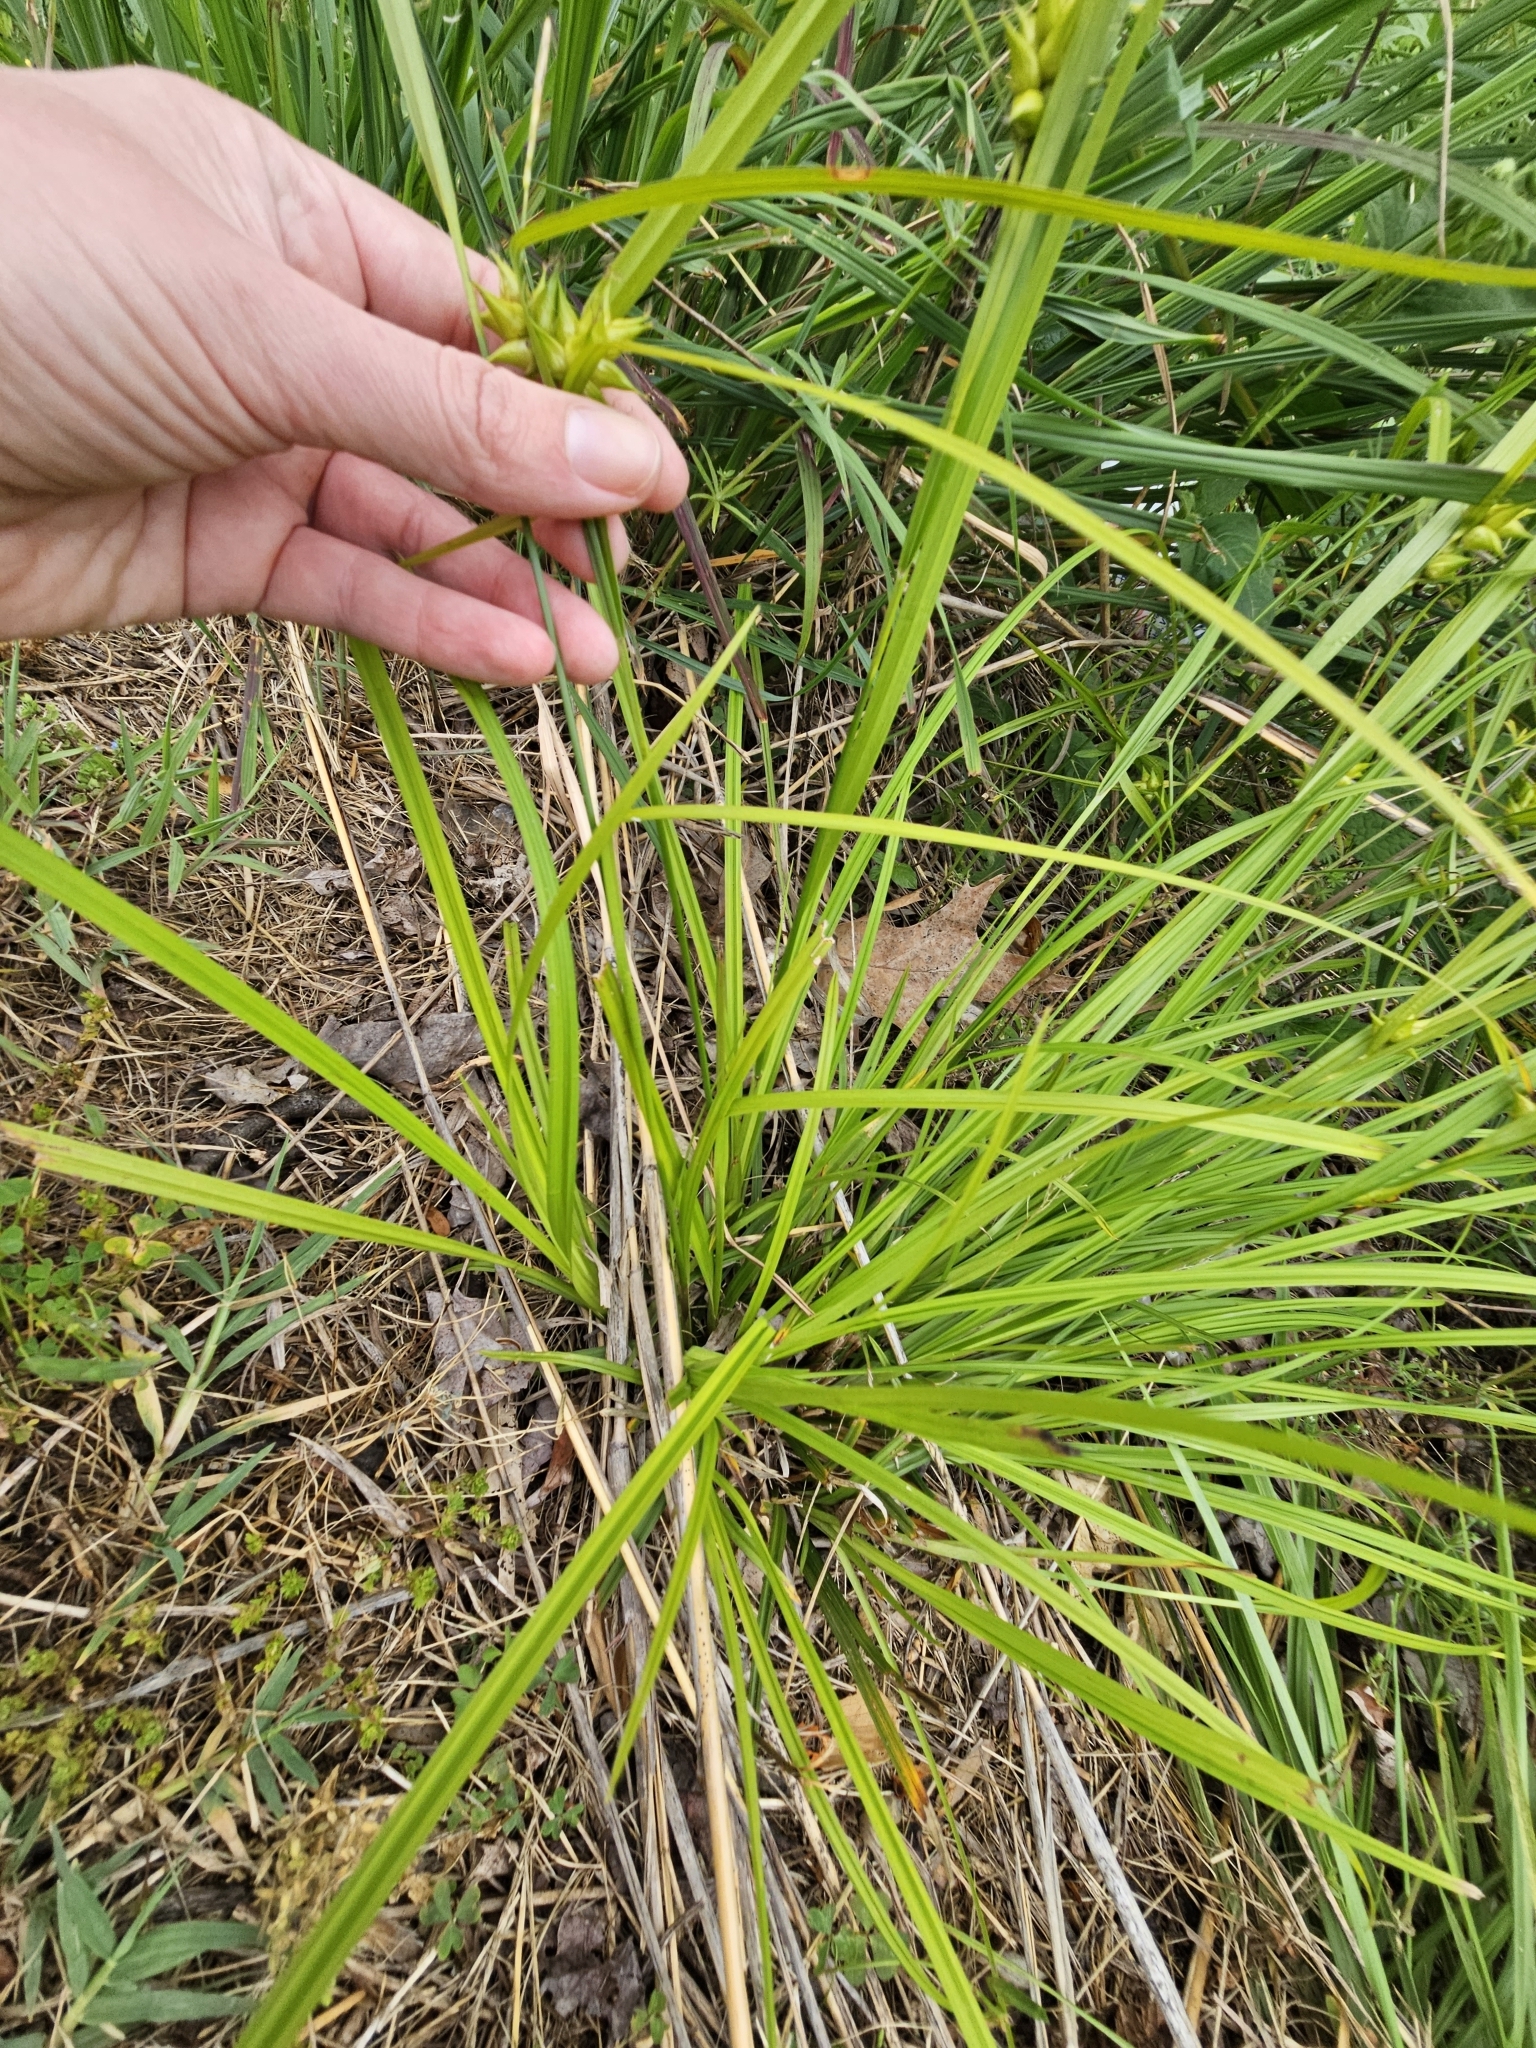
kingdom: Plantae
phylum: Tracheophyta
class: Liliopsida
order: Poales
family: Cyperaceae
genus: Carex
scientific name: Carex intumescens
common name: Greater bladder sedge
